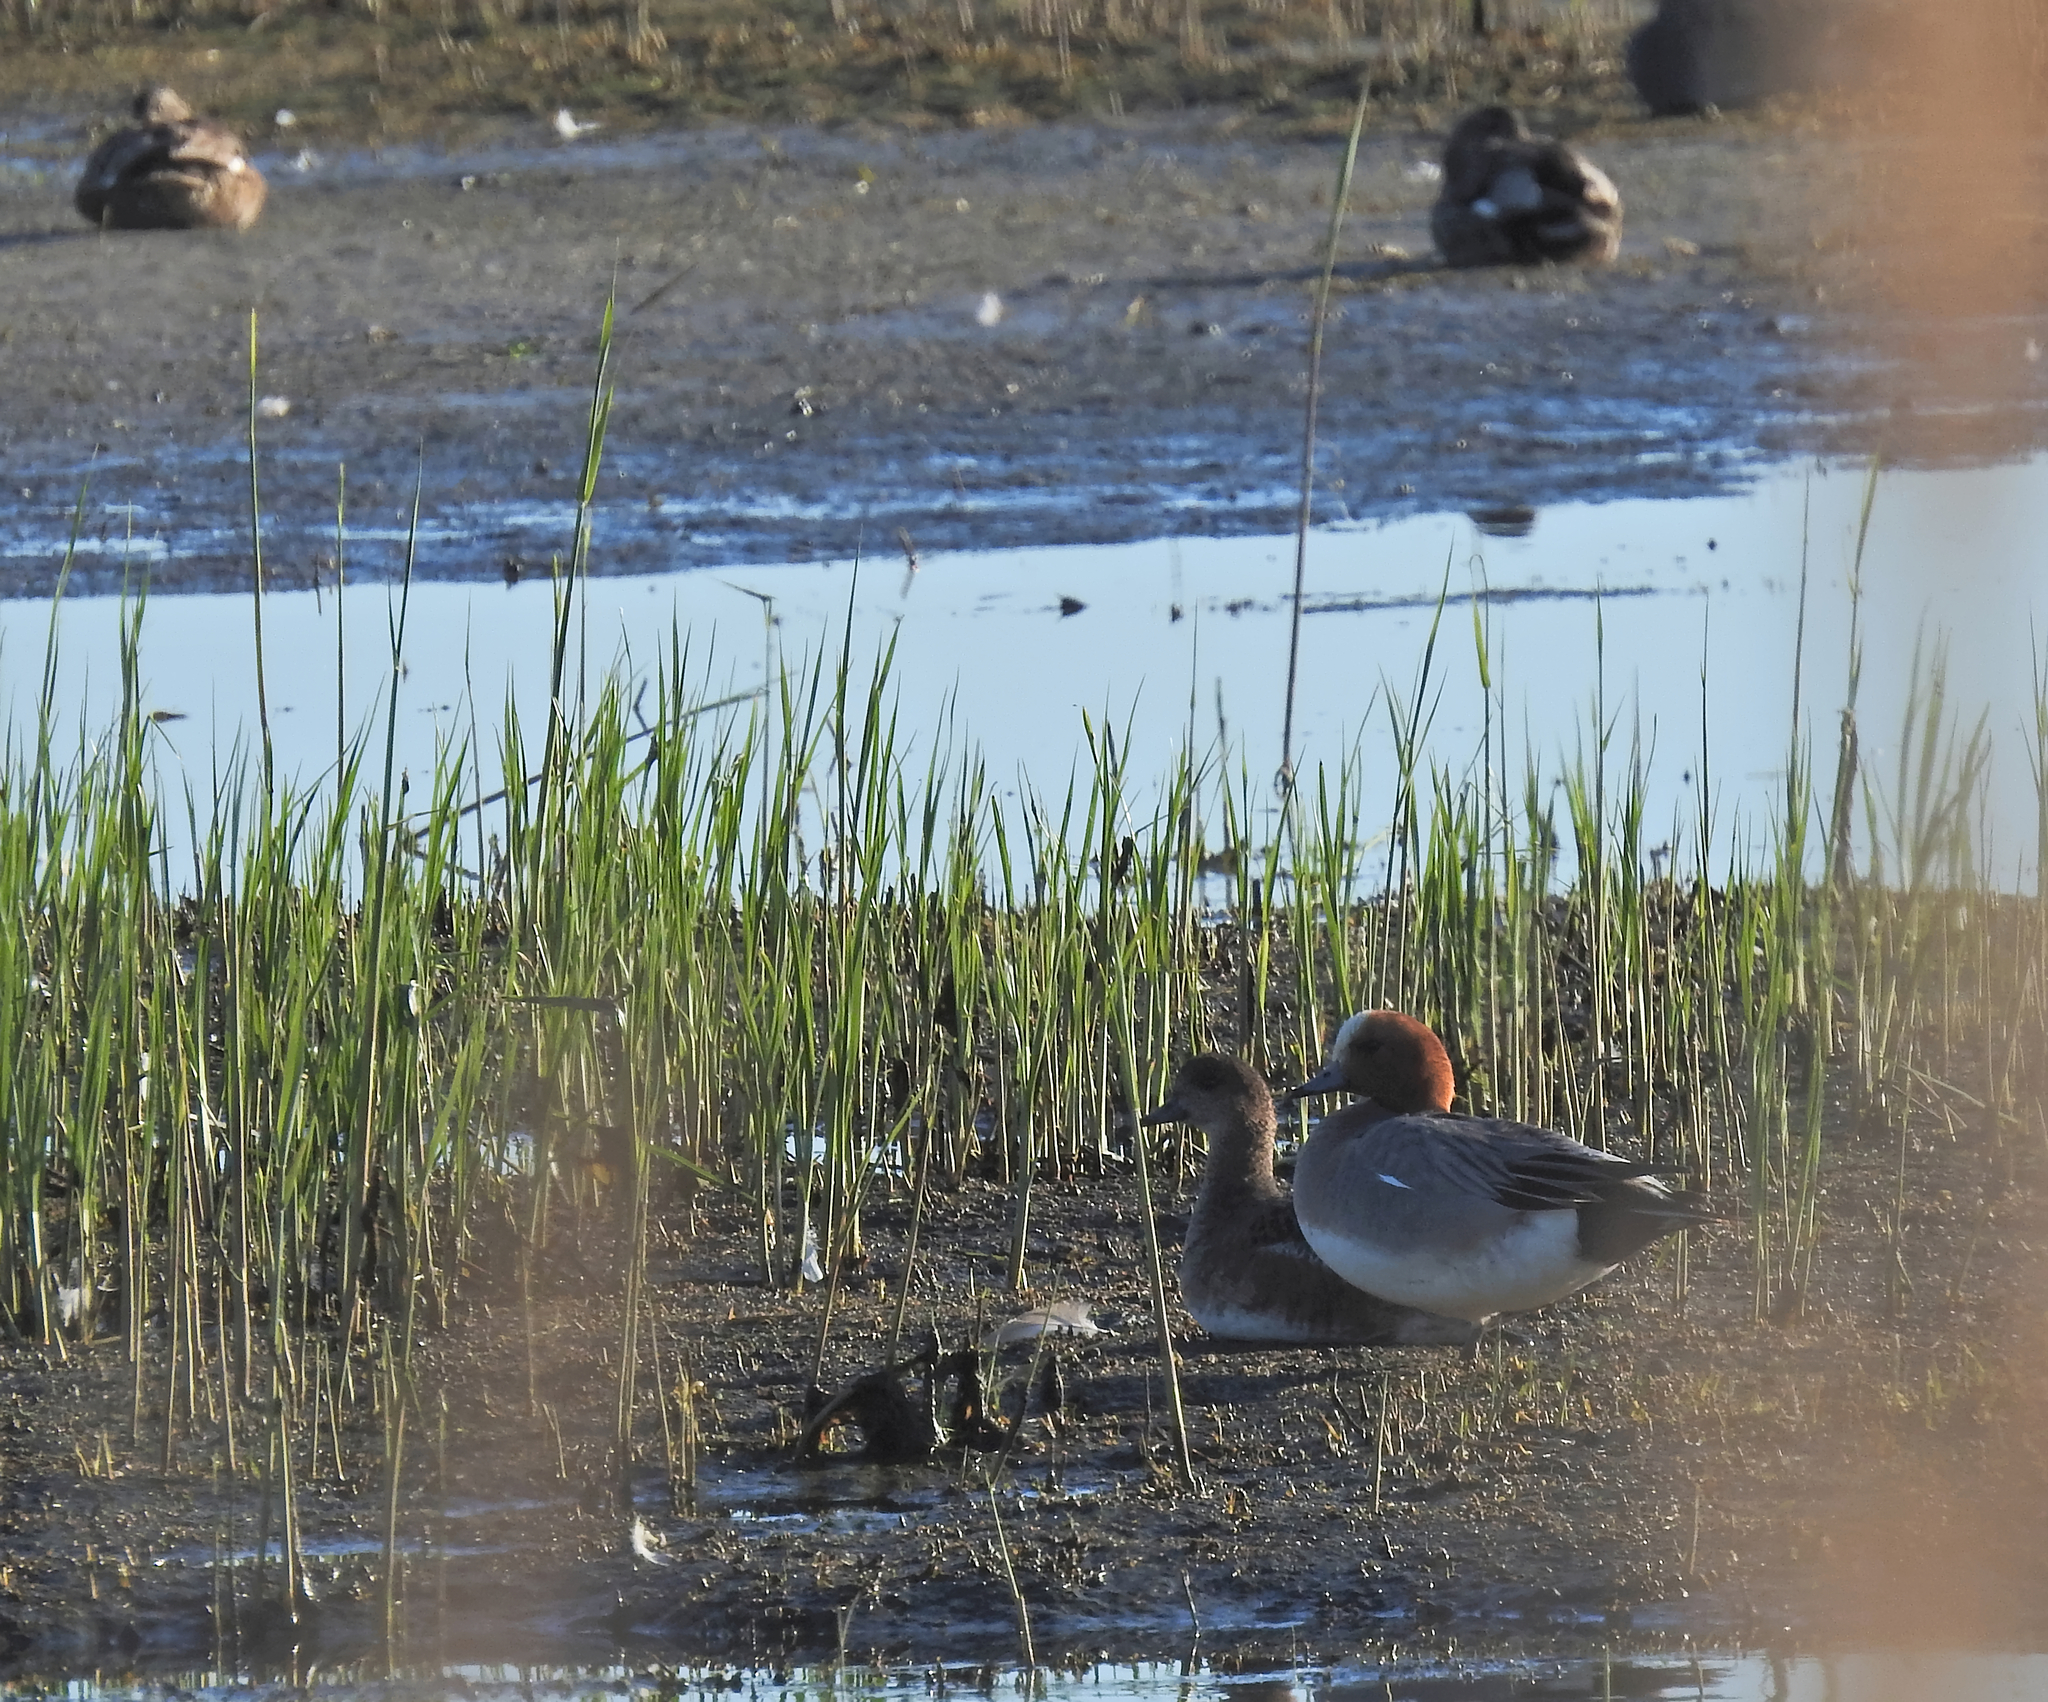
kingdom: Animalia
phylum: Chordata
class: Aves
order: Anseriformes
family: Anatidae
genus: Mareca
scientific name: Mareca penelope
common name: Eurasian wigeon
